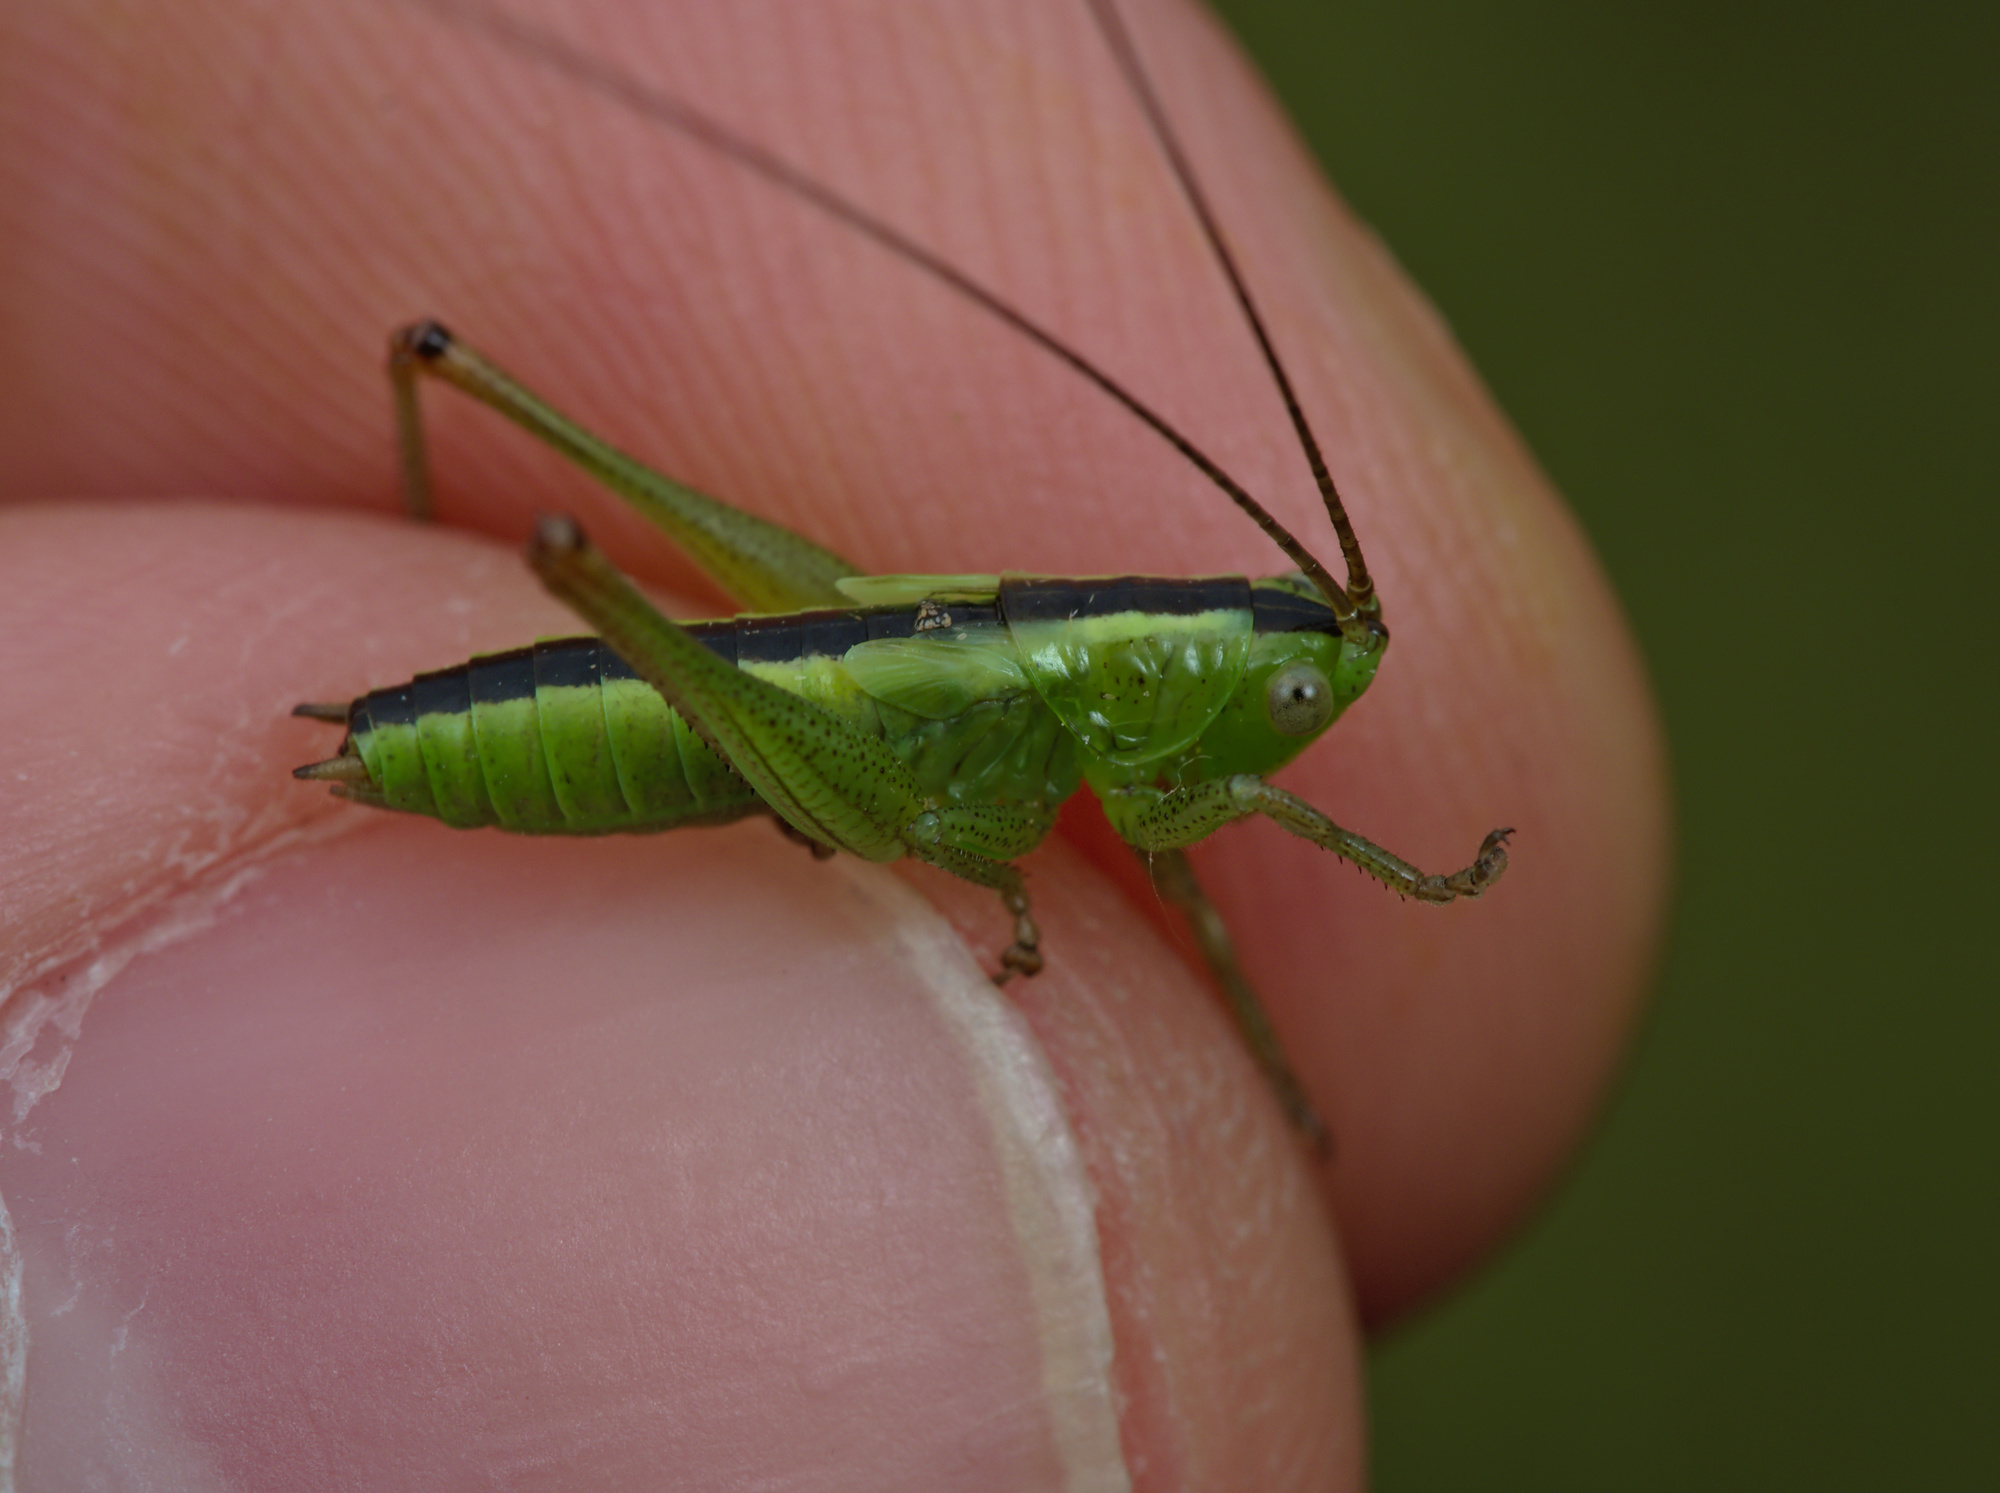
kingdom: Animalia
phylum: Arthropoda
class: Insecta
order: Orthoptera
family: Tettigoniidae
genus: Conocephalus
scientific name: Conocephalus
